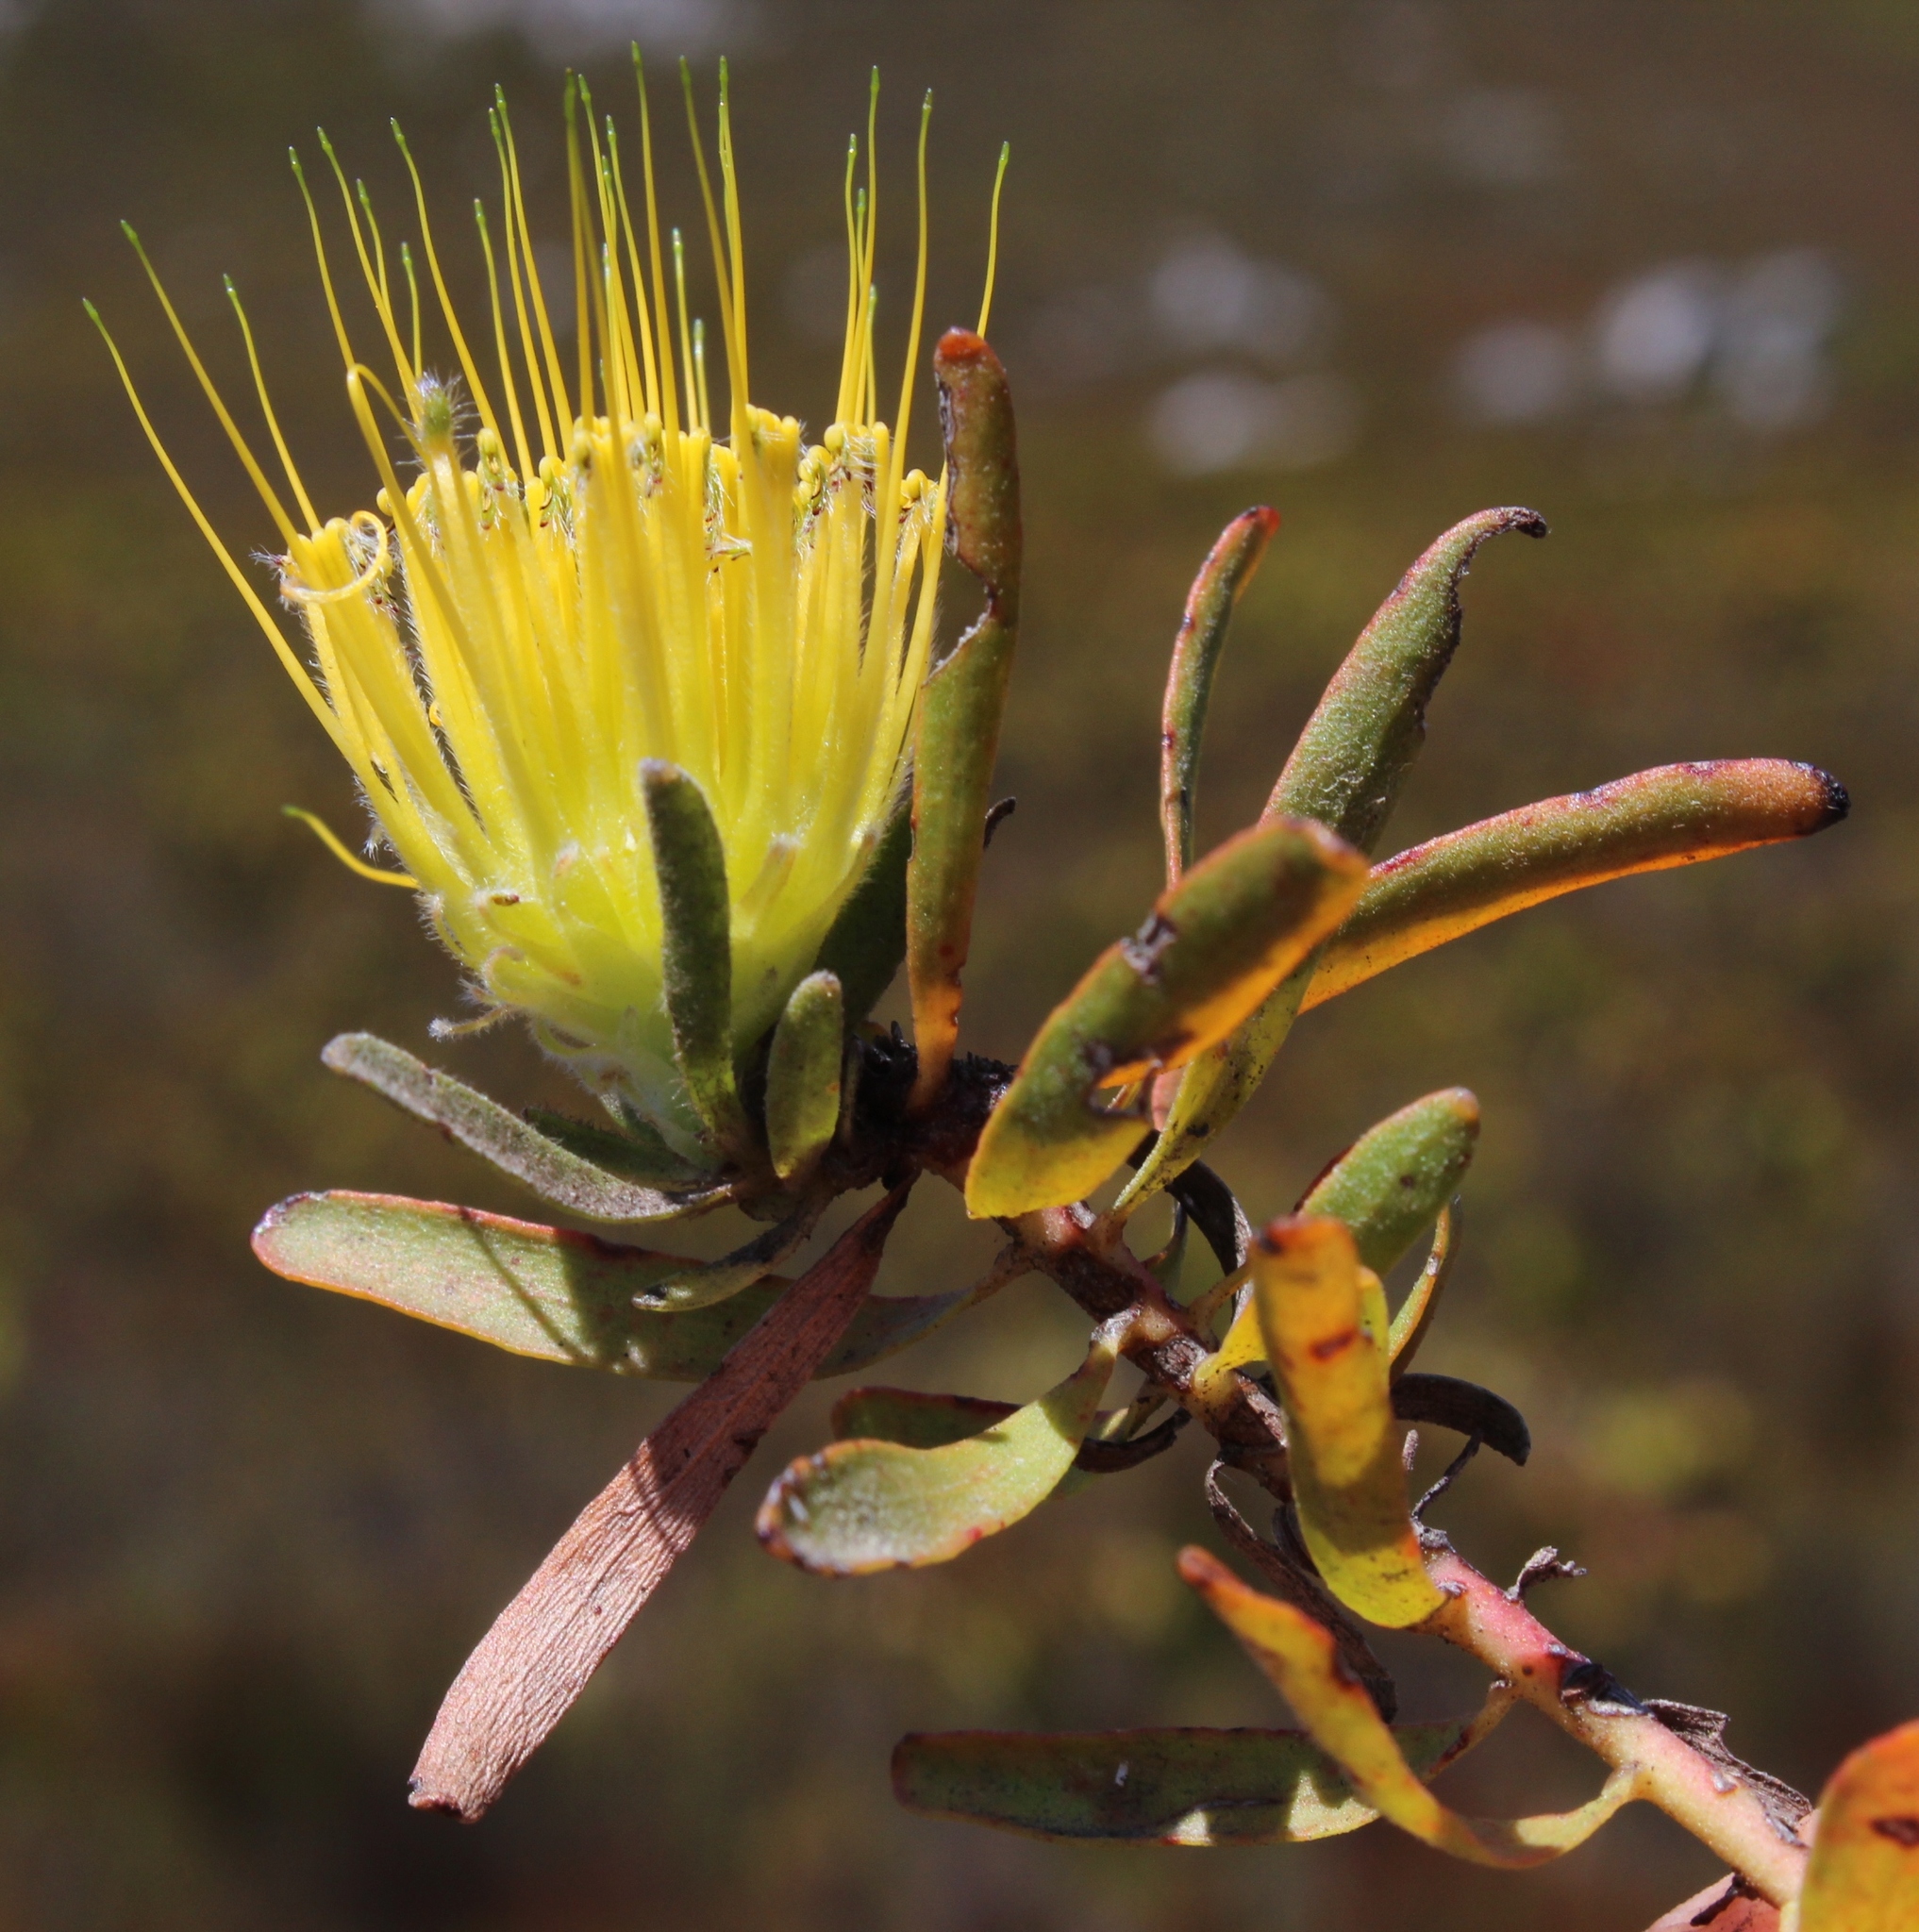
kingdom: Plantae
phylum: Tracheophyta
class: Magnoliopsida
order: Proteales
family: Proteaceae
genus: Leucospermum
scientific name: Leucospermum gracile
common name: Hermanus pincushion
